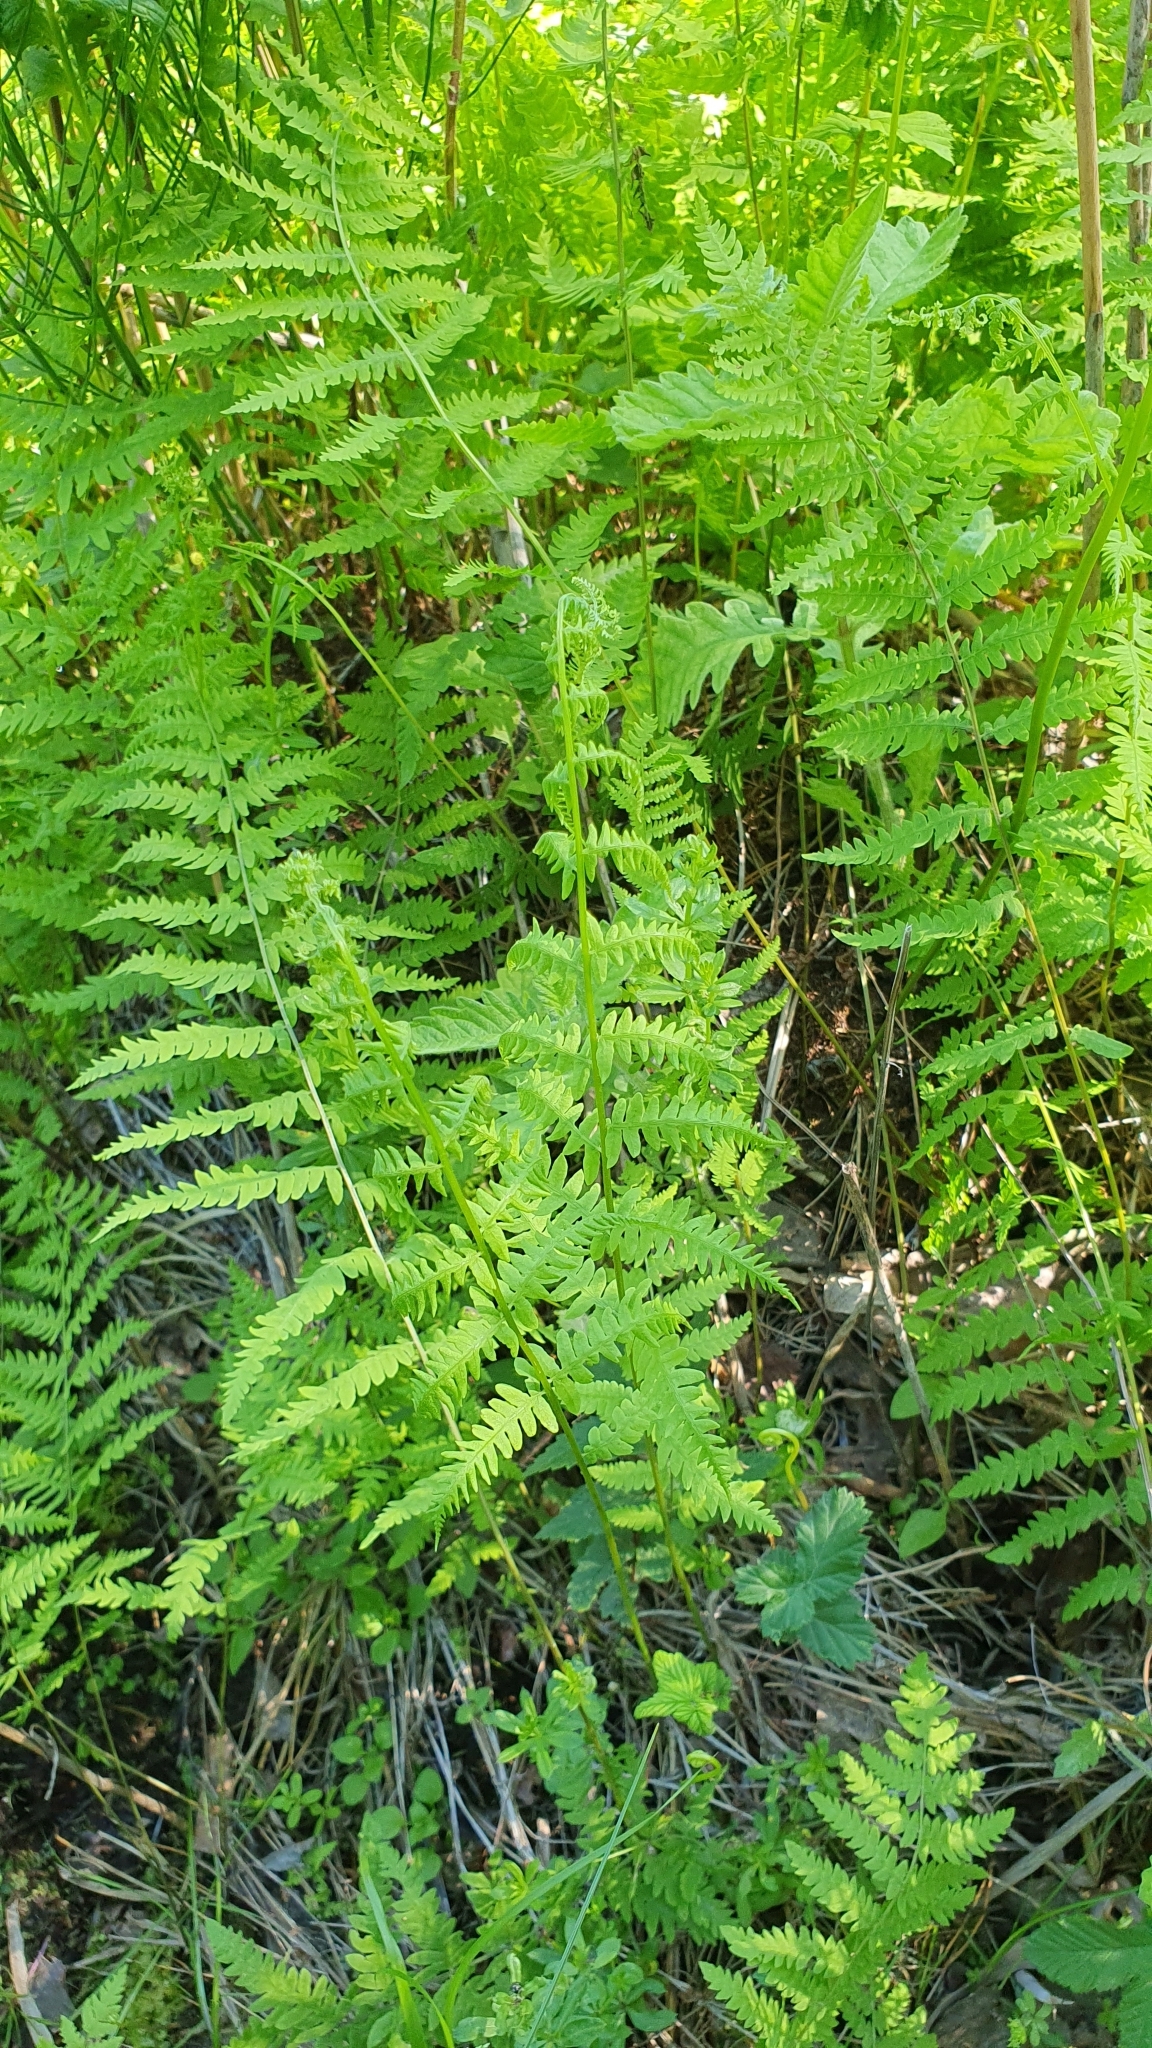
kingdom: Plantae
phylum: Tracheophyta
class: Polypodiopsida
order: Polypodiales
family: Thelypteridaceae
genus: Thelypteris
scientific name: Thelypteris palustris
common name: Marsh fern
